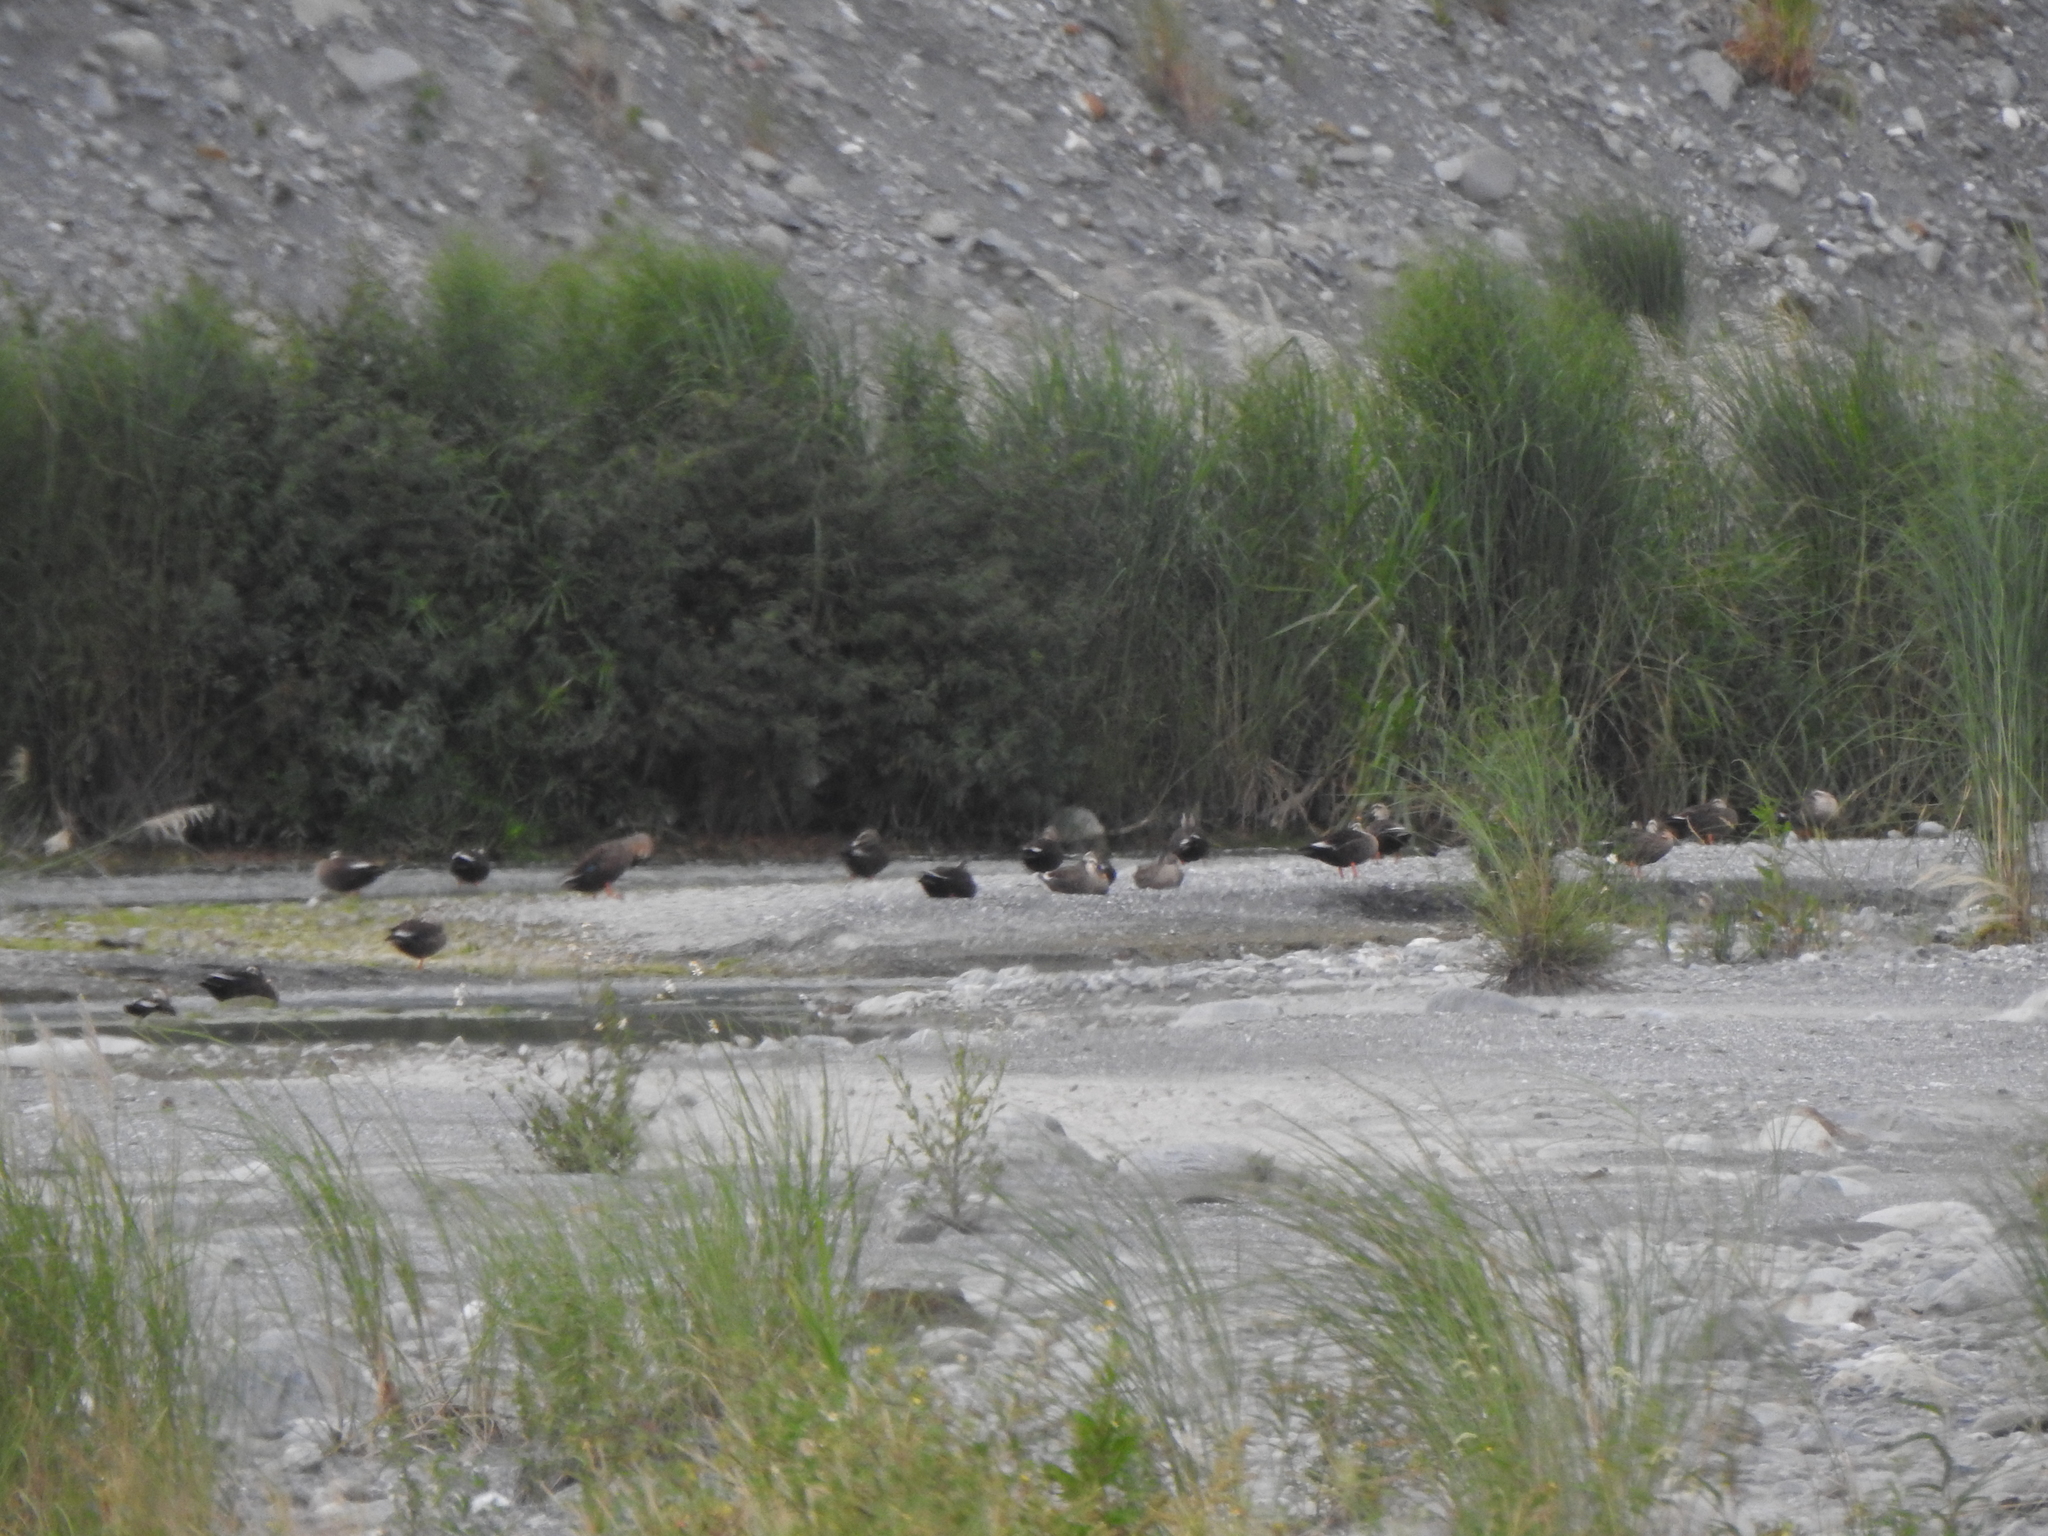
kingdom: Animalia
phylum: Chordata
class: Aves
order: Anseriformes
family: Anatidae
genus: Anas
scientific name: Anas zonorhyncha
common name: Eastern spot-billed duck
